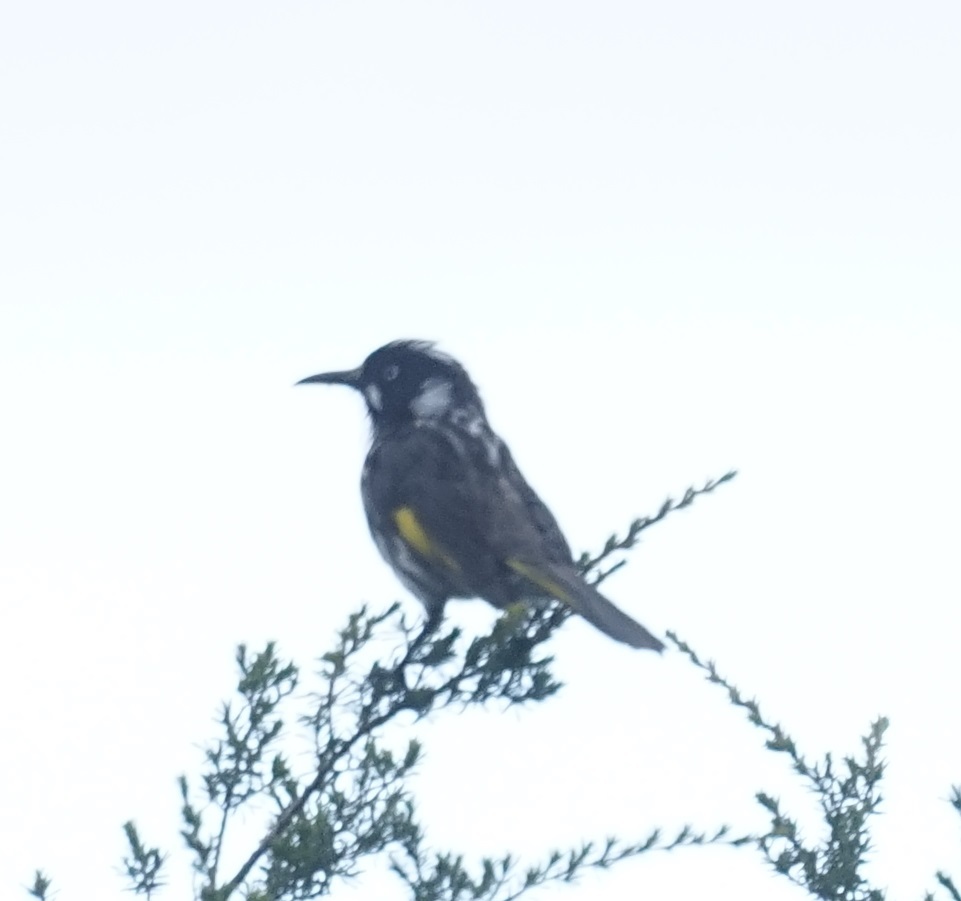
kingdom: Animalia
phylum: Chordata
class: Aves
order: Passeriformes
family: Meliphagidae
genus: Phylidonyris
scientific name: Phylidonyris novaehollandiae
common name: New holland honeyeater
